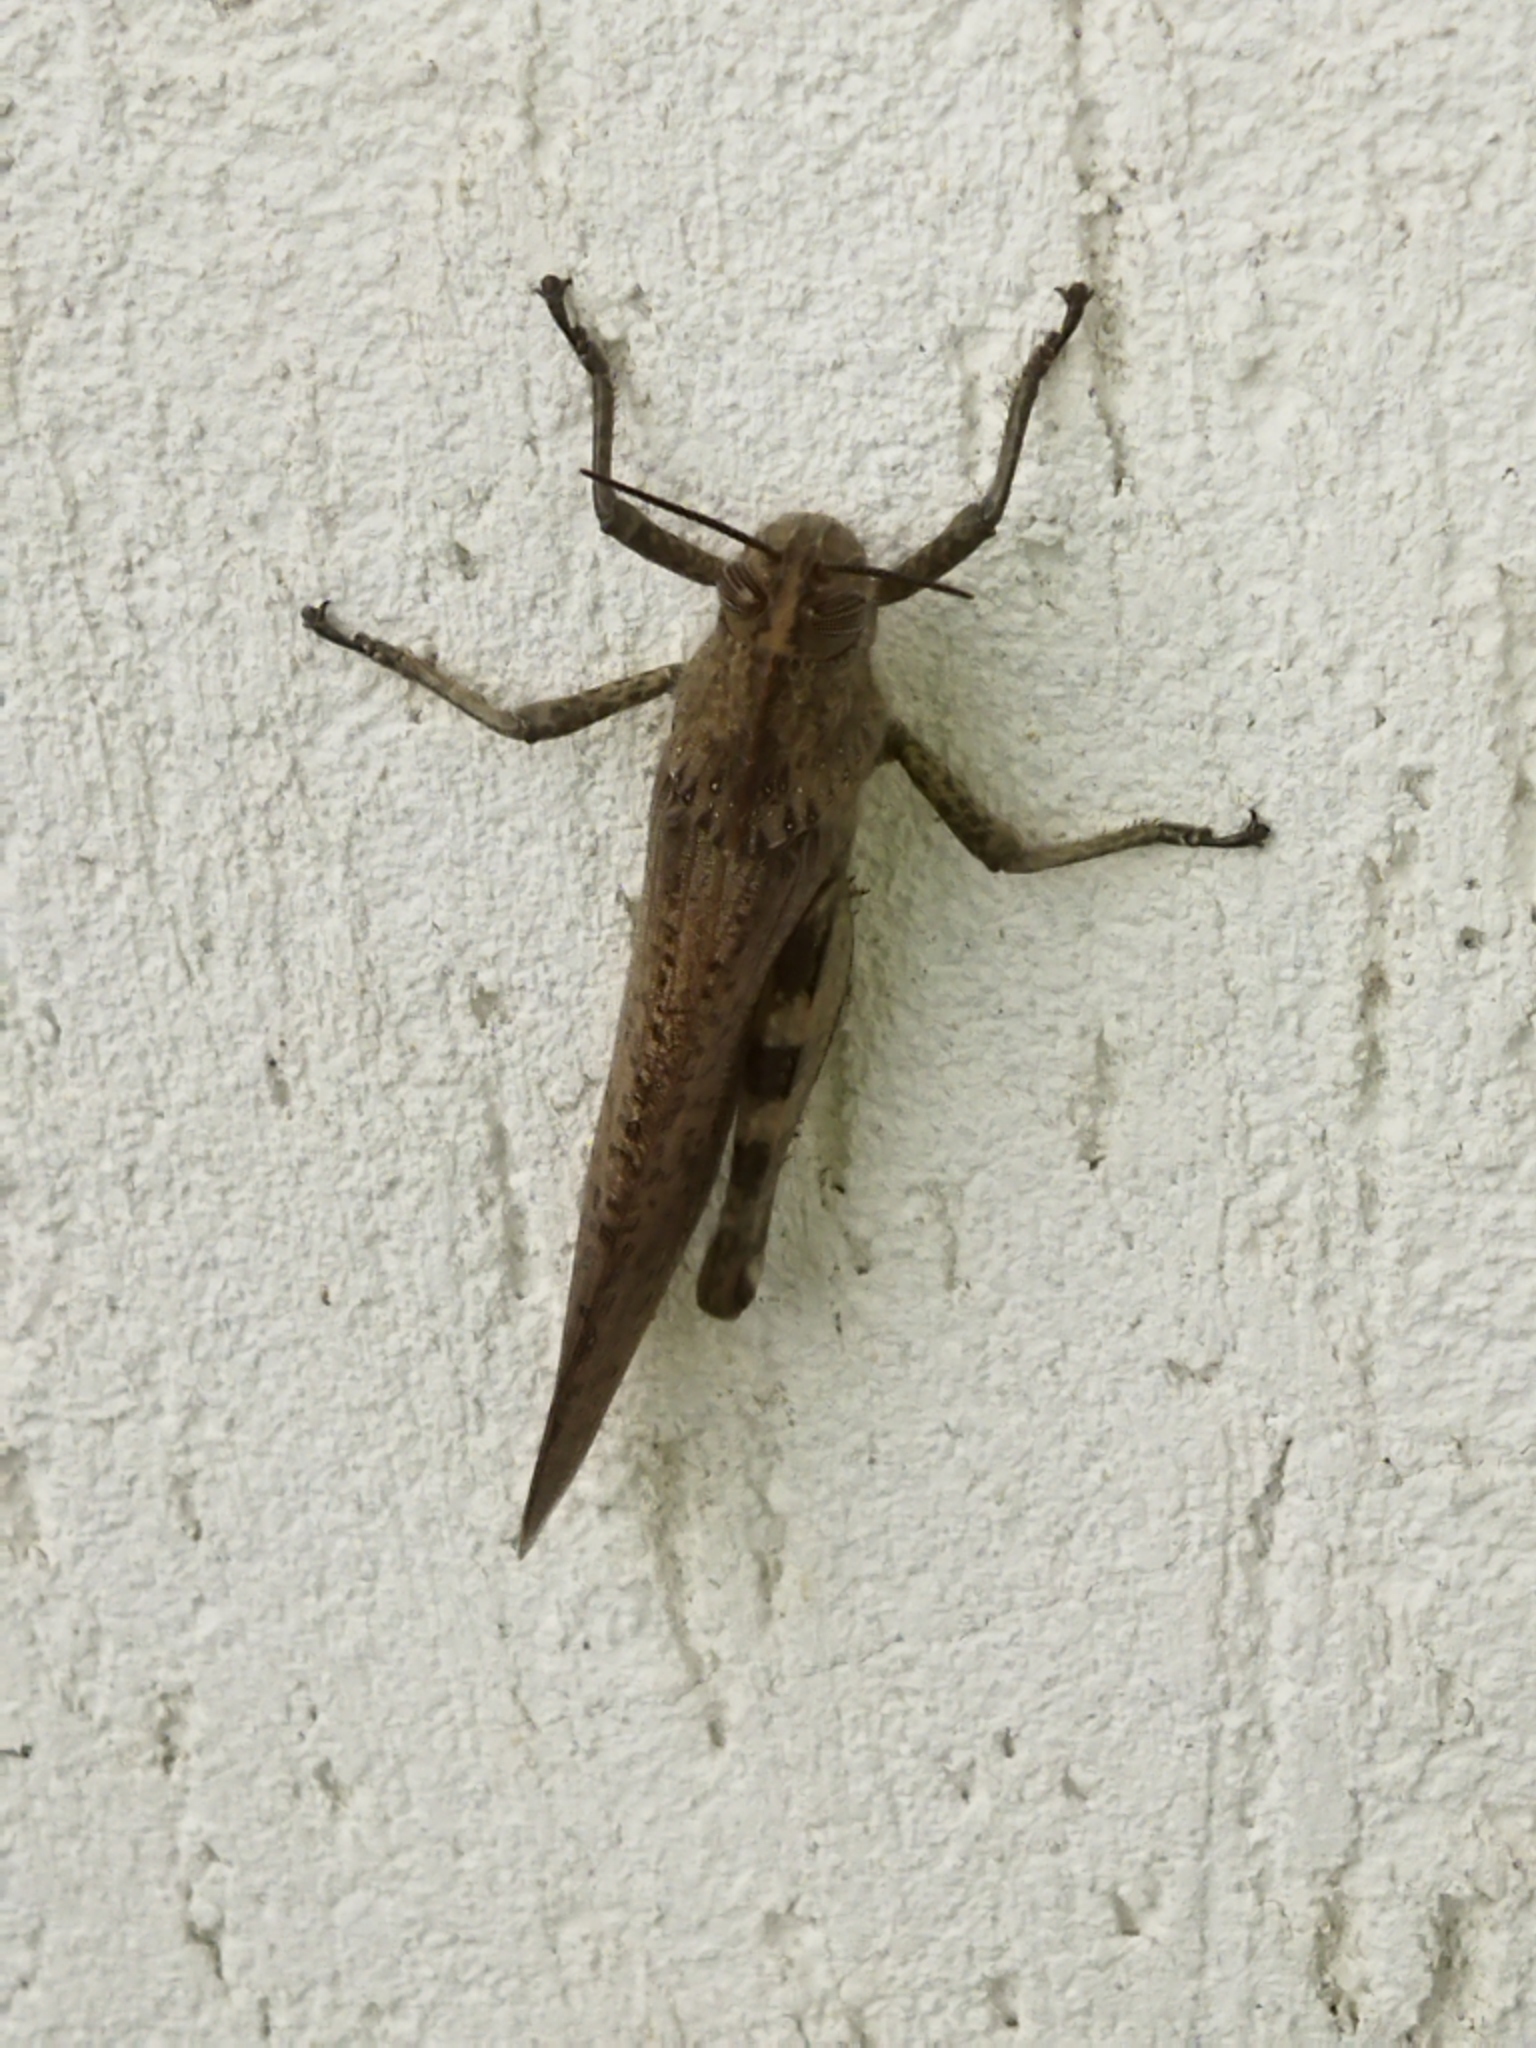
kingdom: Animalia
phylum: Arthropoda
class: Insecta
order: Orthoptera
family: Acrididae
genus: Anacridium
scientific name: Anacridium aegyptium
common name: Egyptian grasshopper
